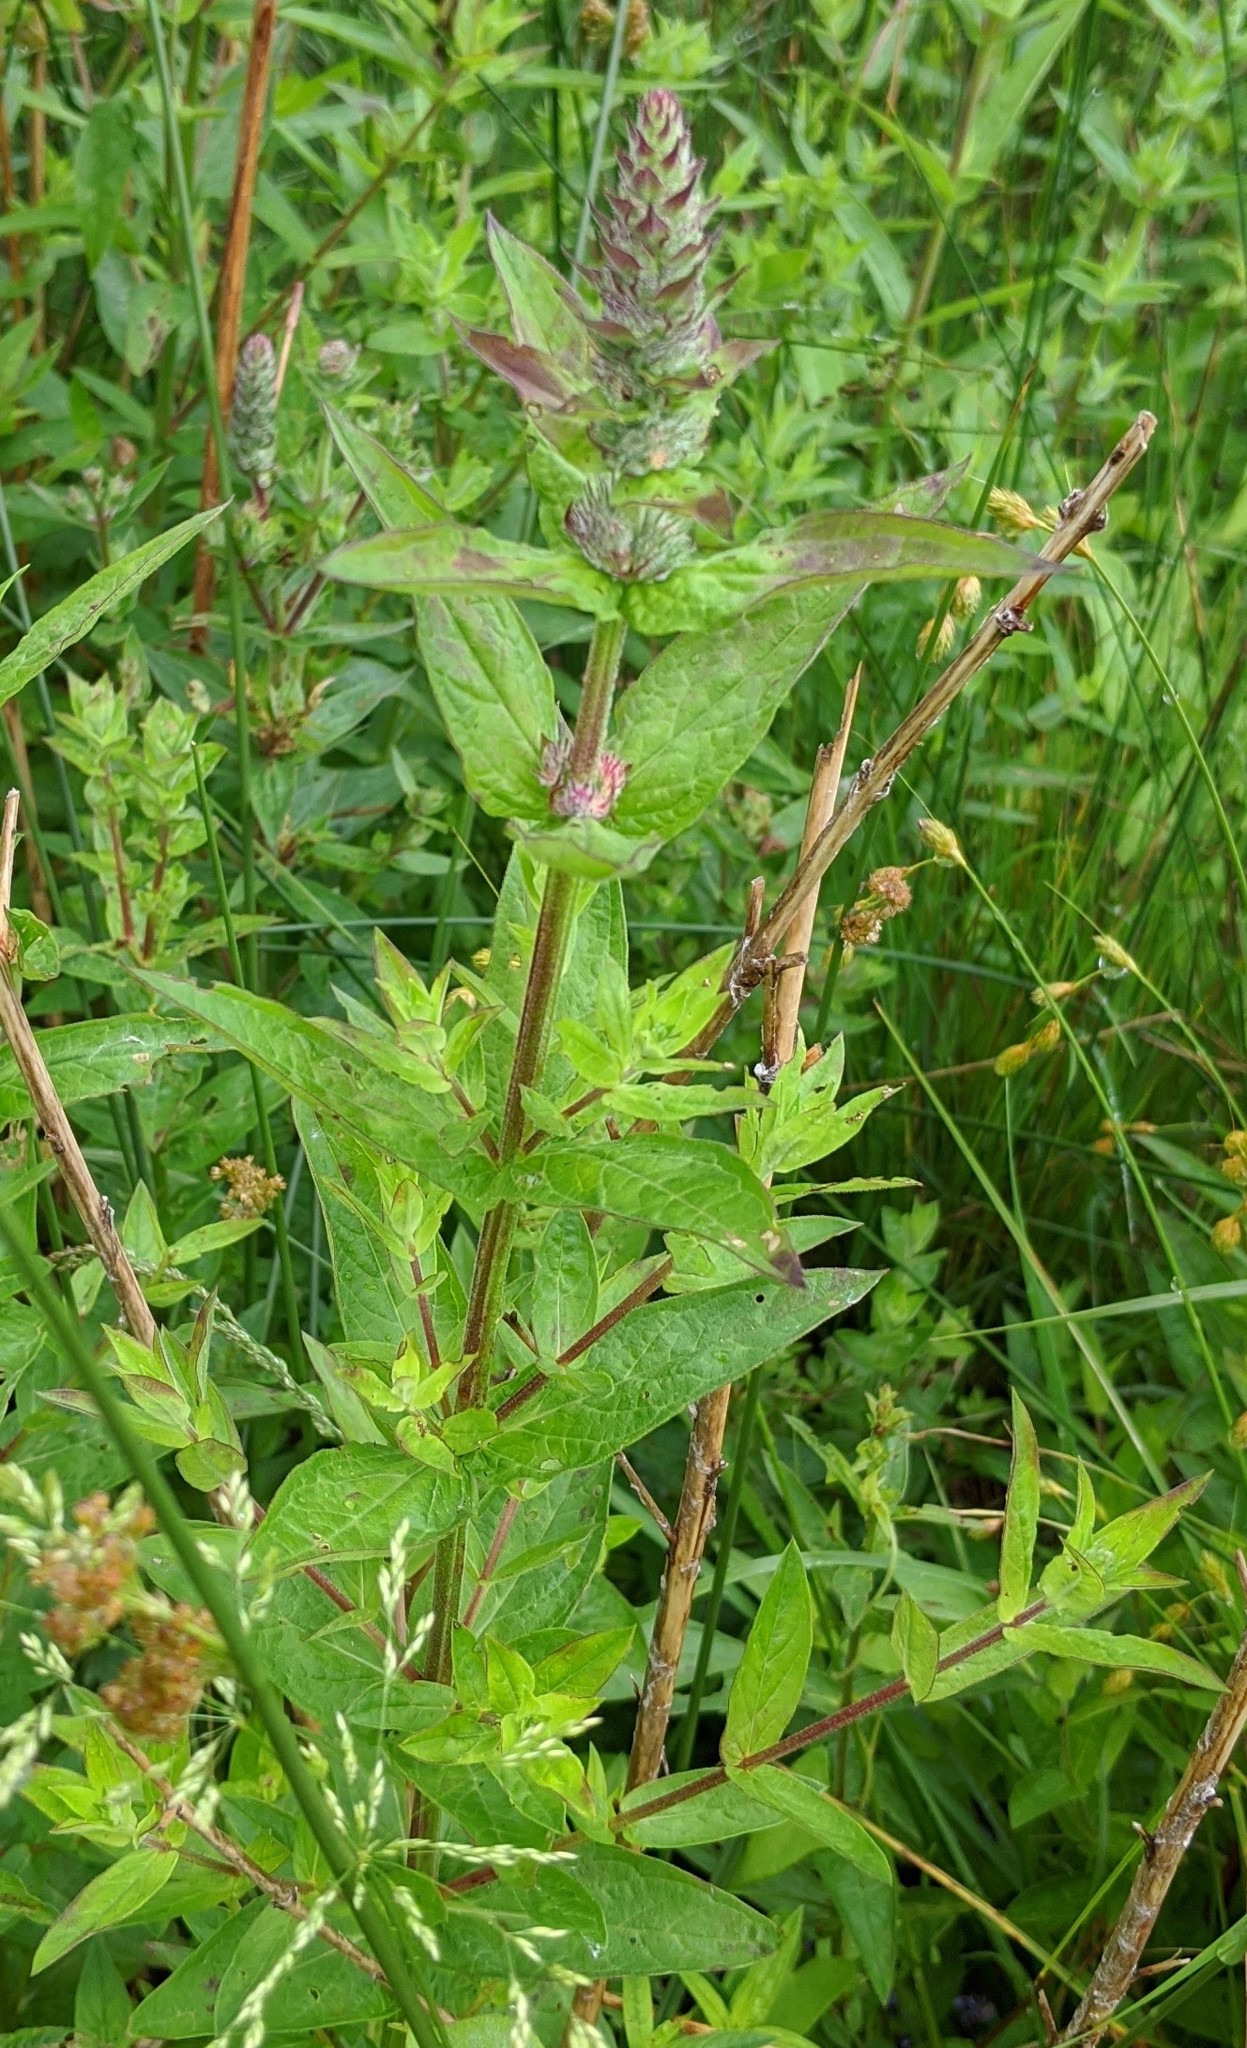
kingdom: Plantae
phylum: Tracheophyta
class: Magnoliopsida
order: Myrtales
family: Lythraceae
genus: Lythrum
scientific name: Lythrum salicaria
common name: Purple loosestrife
